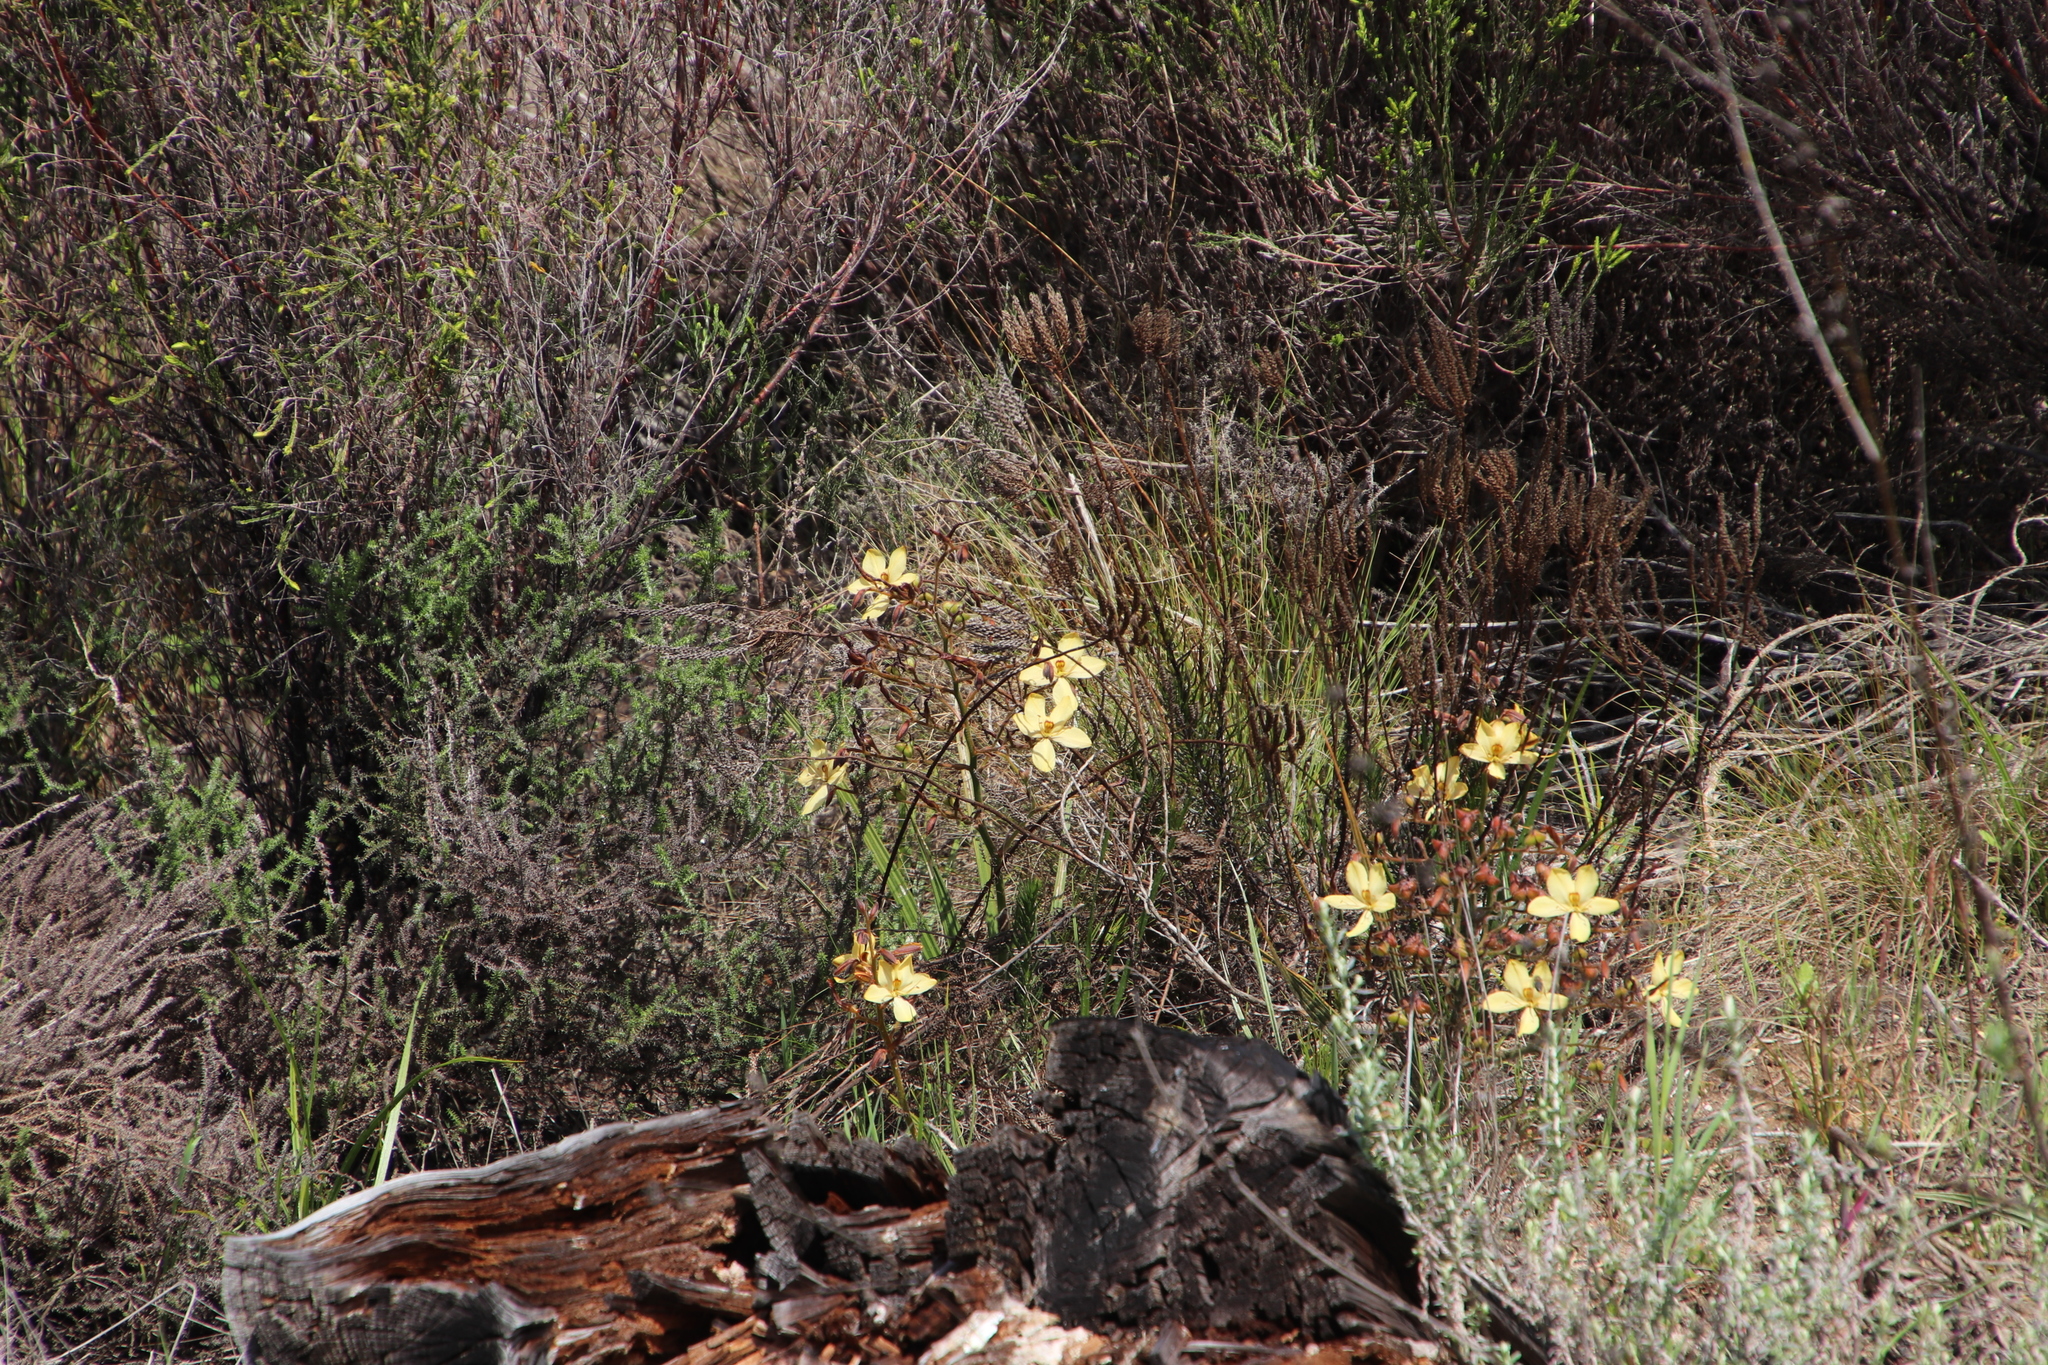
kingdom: Plantae
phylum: Tracheophyta
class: Liliopsida
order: Commelinales
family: Haemodoraceae
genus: Wachendorfia
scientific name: Wachendorfia paniculata
